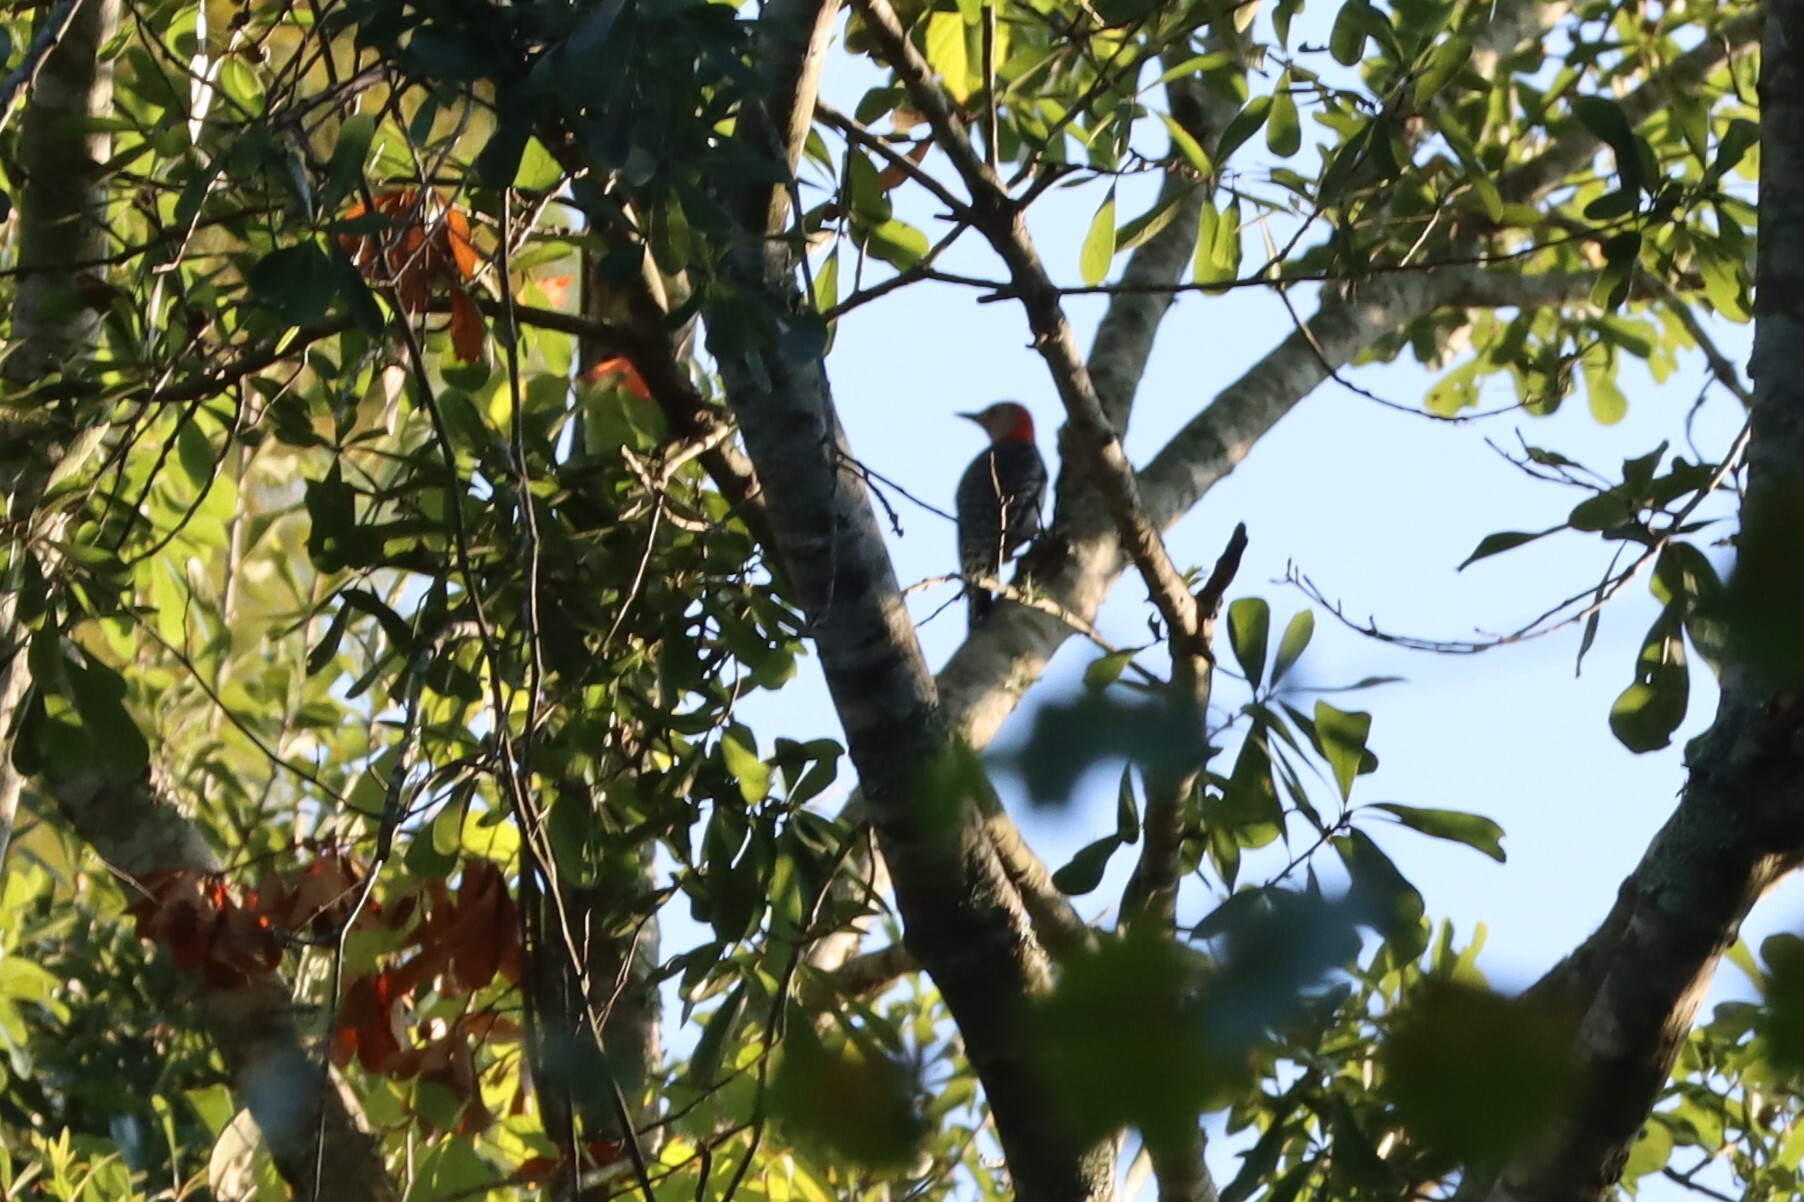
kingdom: Animalia
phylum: Chordata
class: Aves
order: Piciformes
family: Picidae
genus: Melanerpes
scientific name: Melanerpes carolinus
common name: Red-bellied woodpecker
